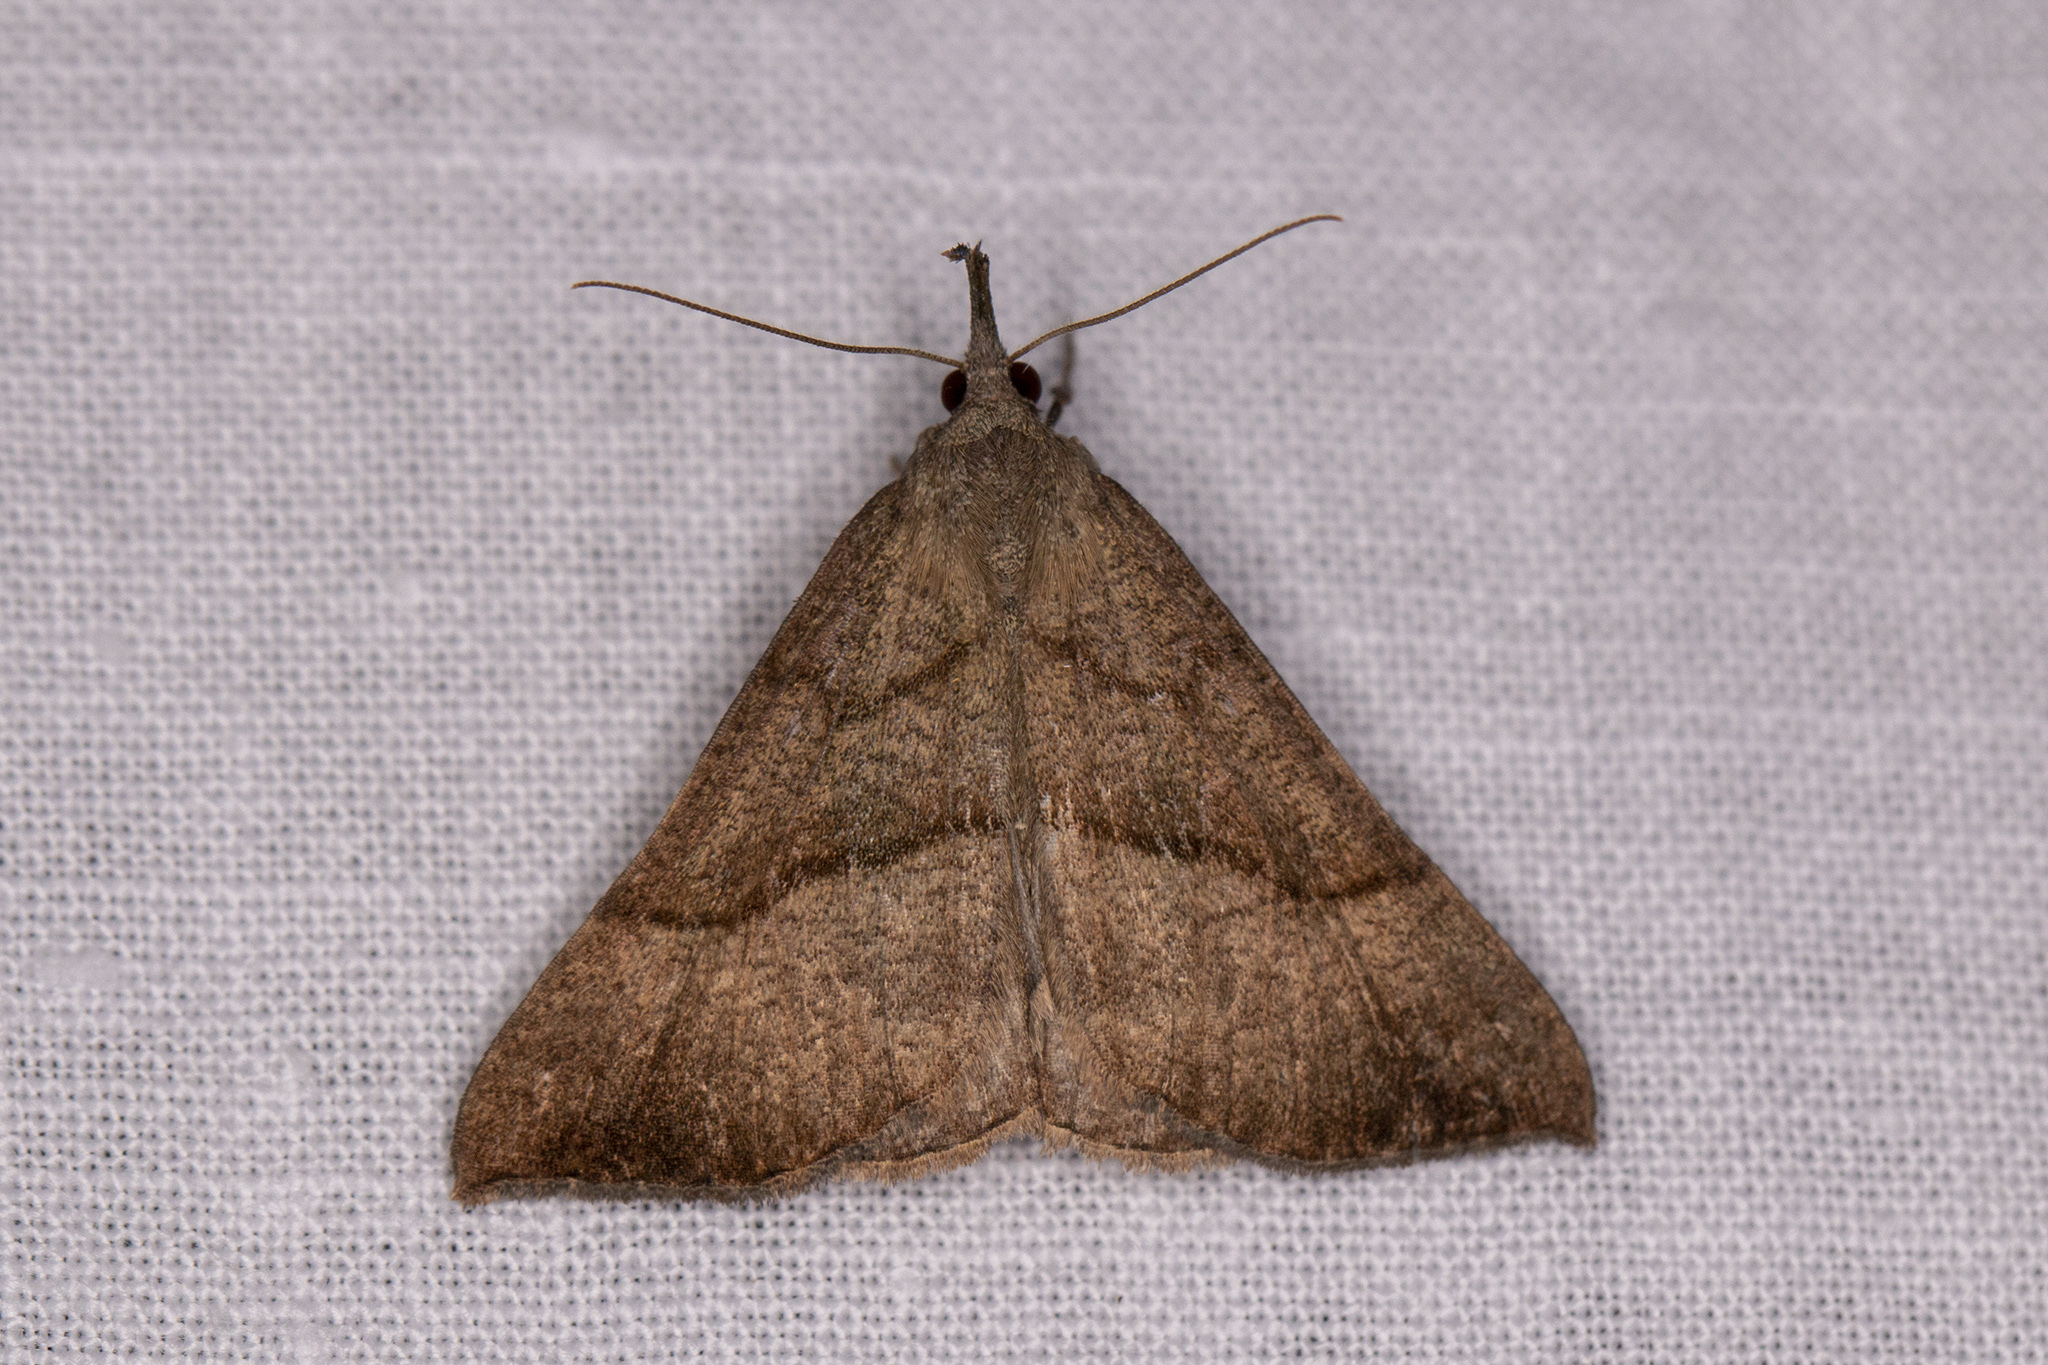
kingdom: Animalia
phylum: Arthropoda
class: Insecta
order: Lepidoptera
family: Erebidae
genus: Hypena
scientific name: Hypena proboscidalis
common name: Snout
